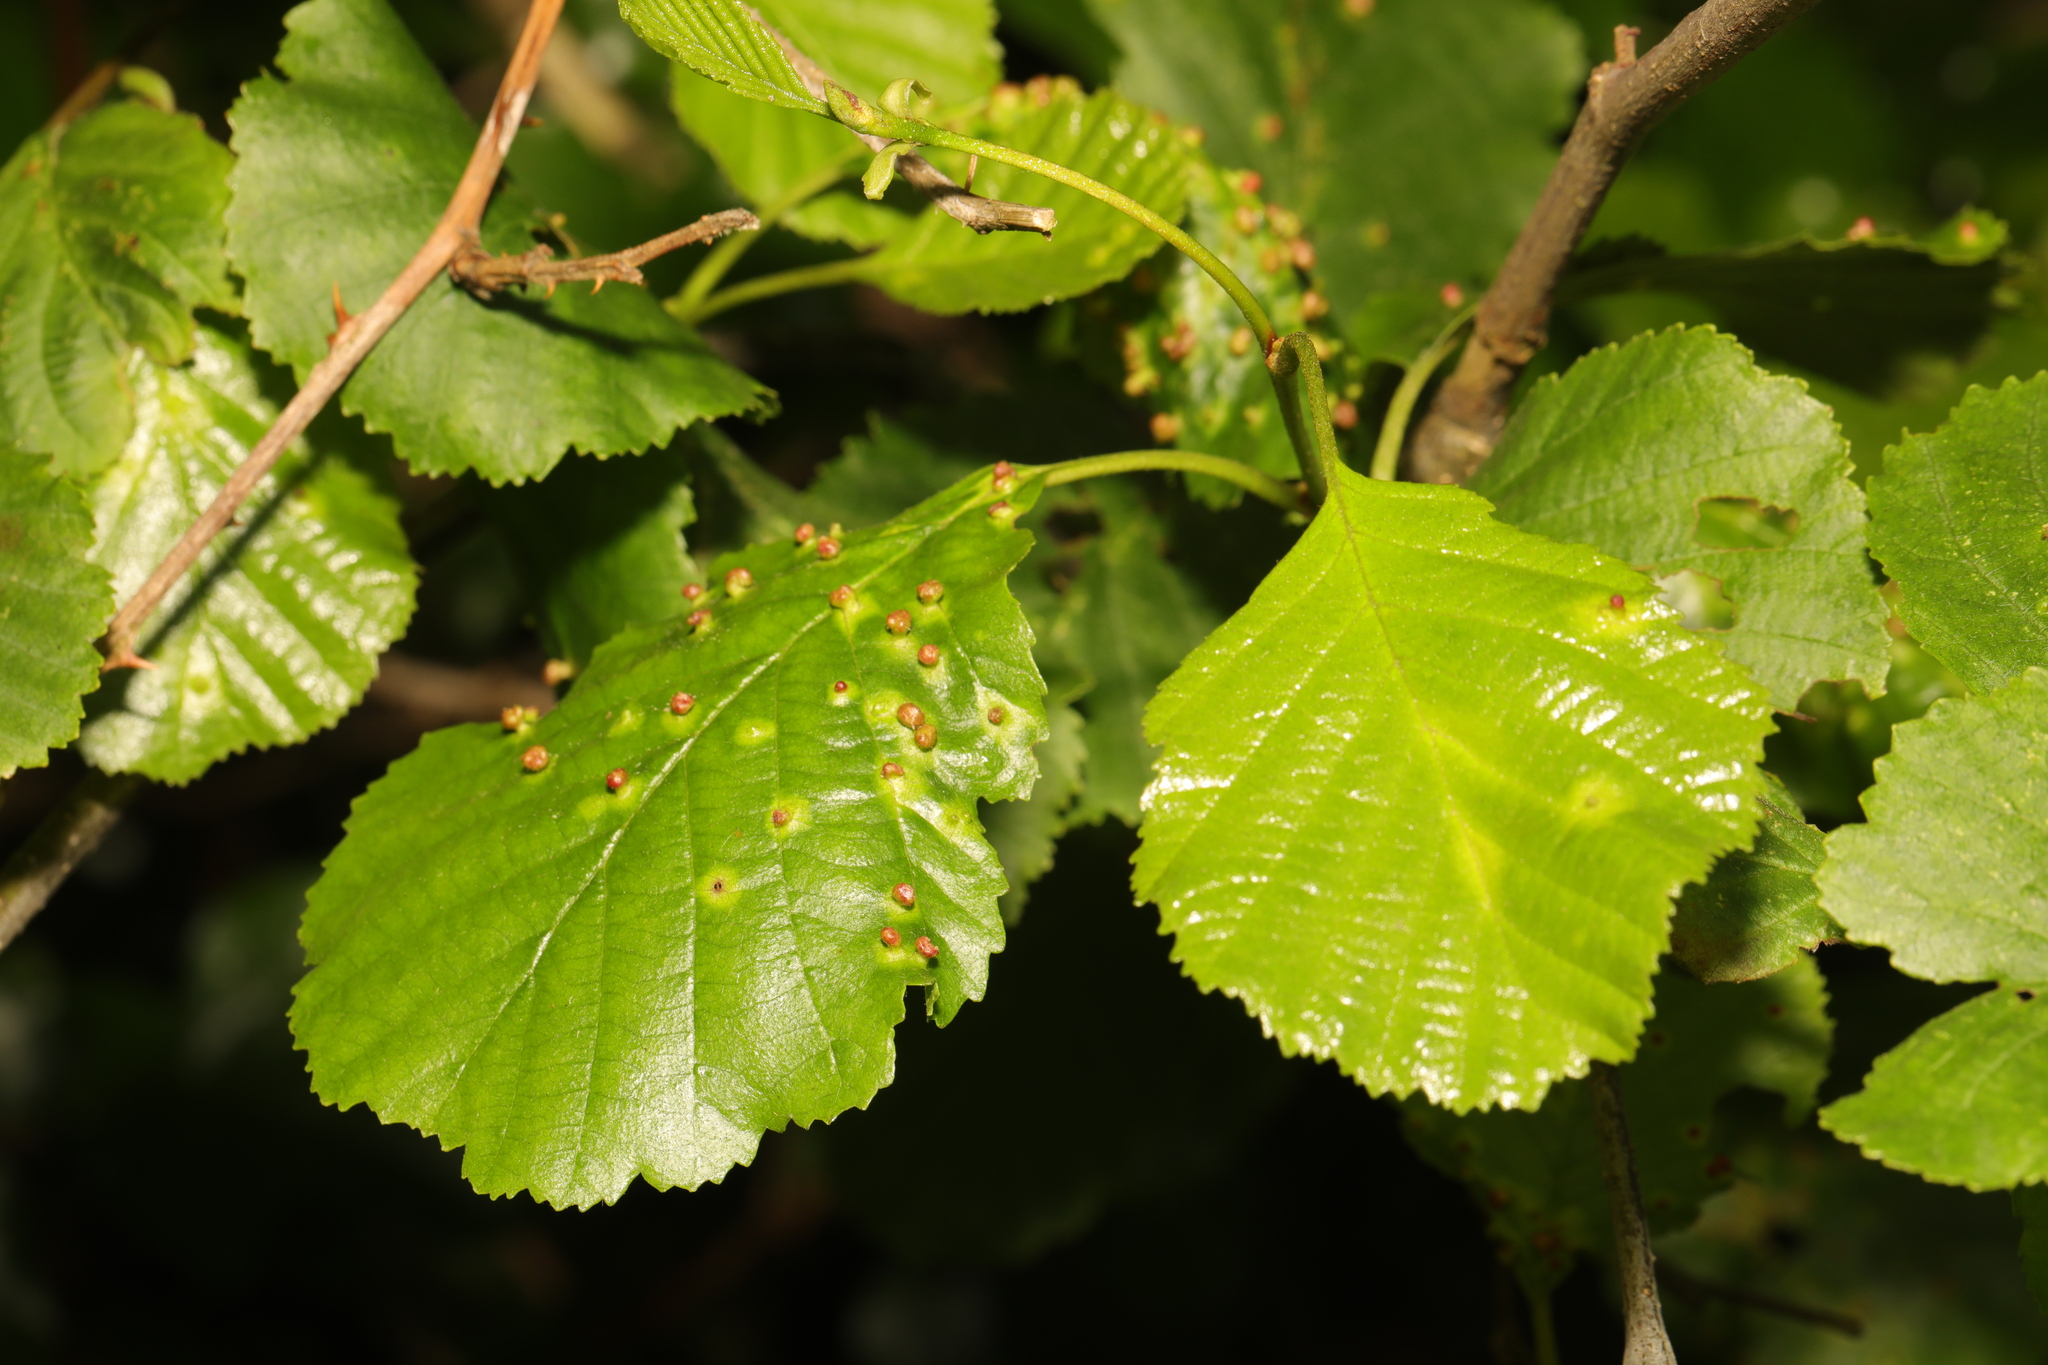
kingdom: Plantae
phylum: Tracheophyta
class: Magnoliopsida
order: Fagales
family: Betulaceae
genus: Alnus
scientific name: Alnus glutinosa
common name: Black alder
